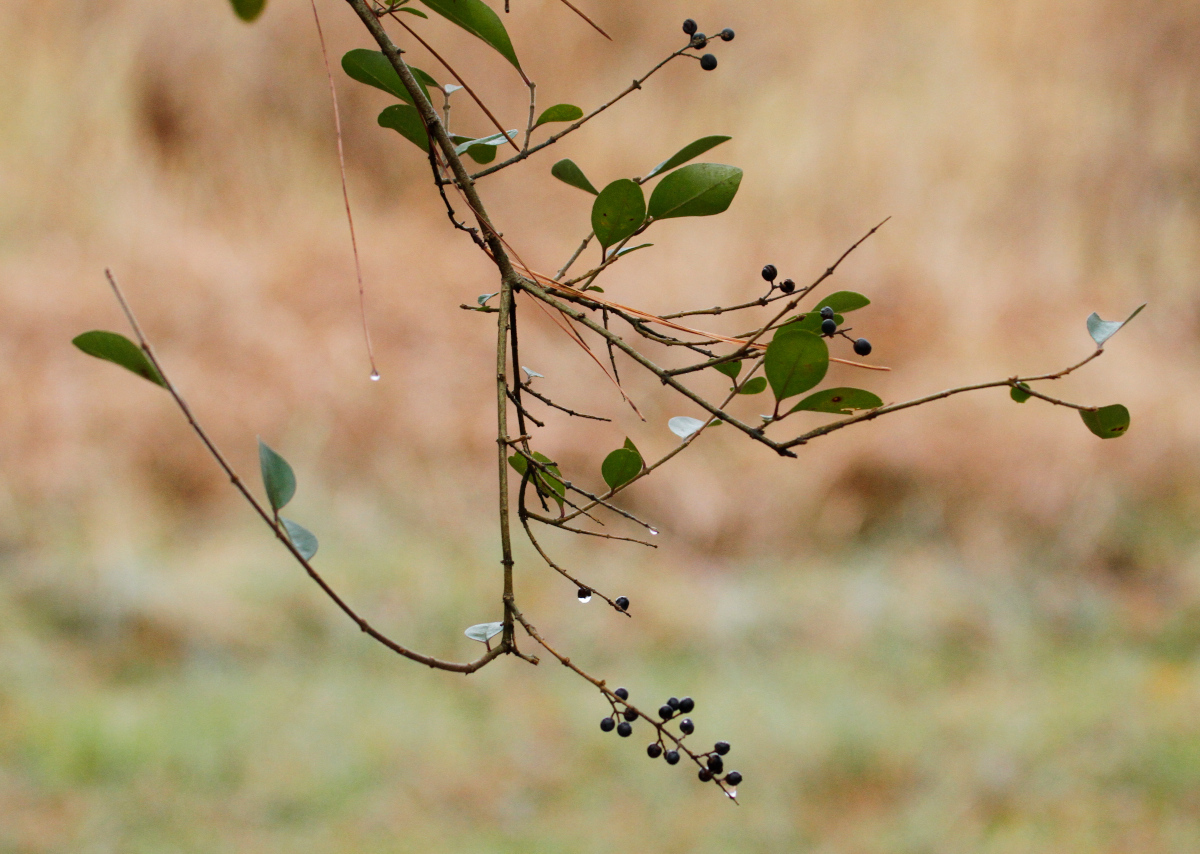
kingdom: Plantae
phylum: Tracheophyta
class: Magnoliopsida
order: Lamiales
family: Oleaceae
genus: Ligustrum
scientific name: Ligustrum sinense
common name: Chinese privet
